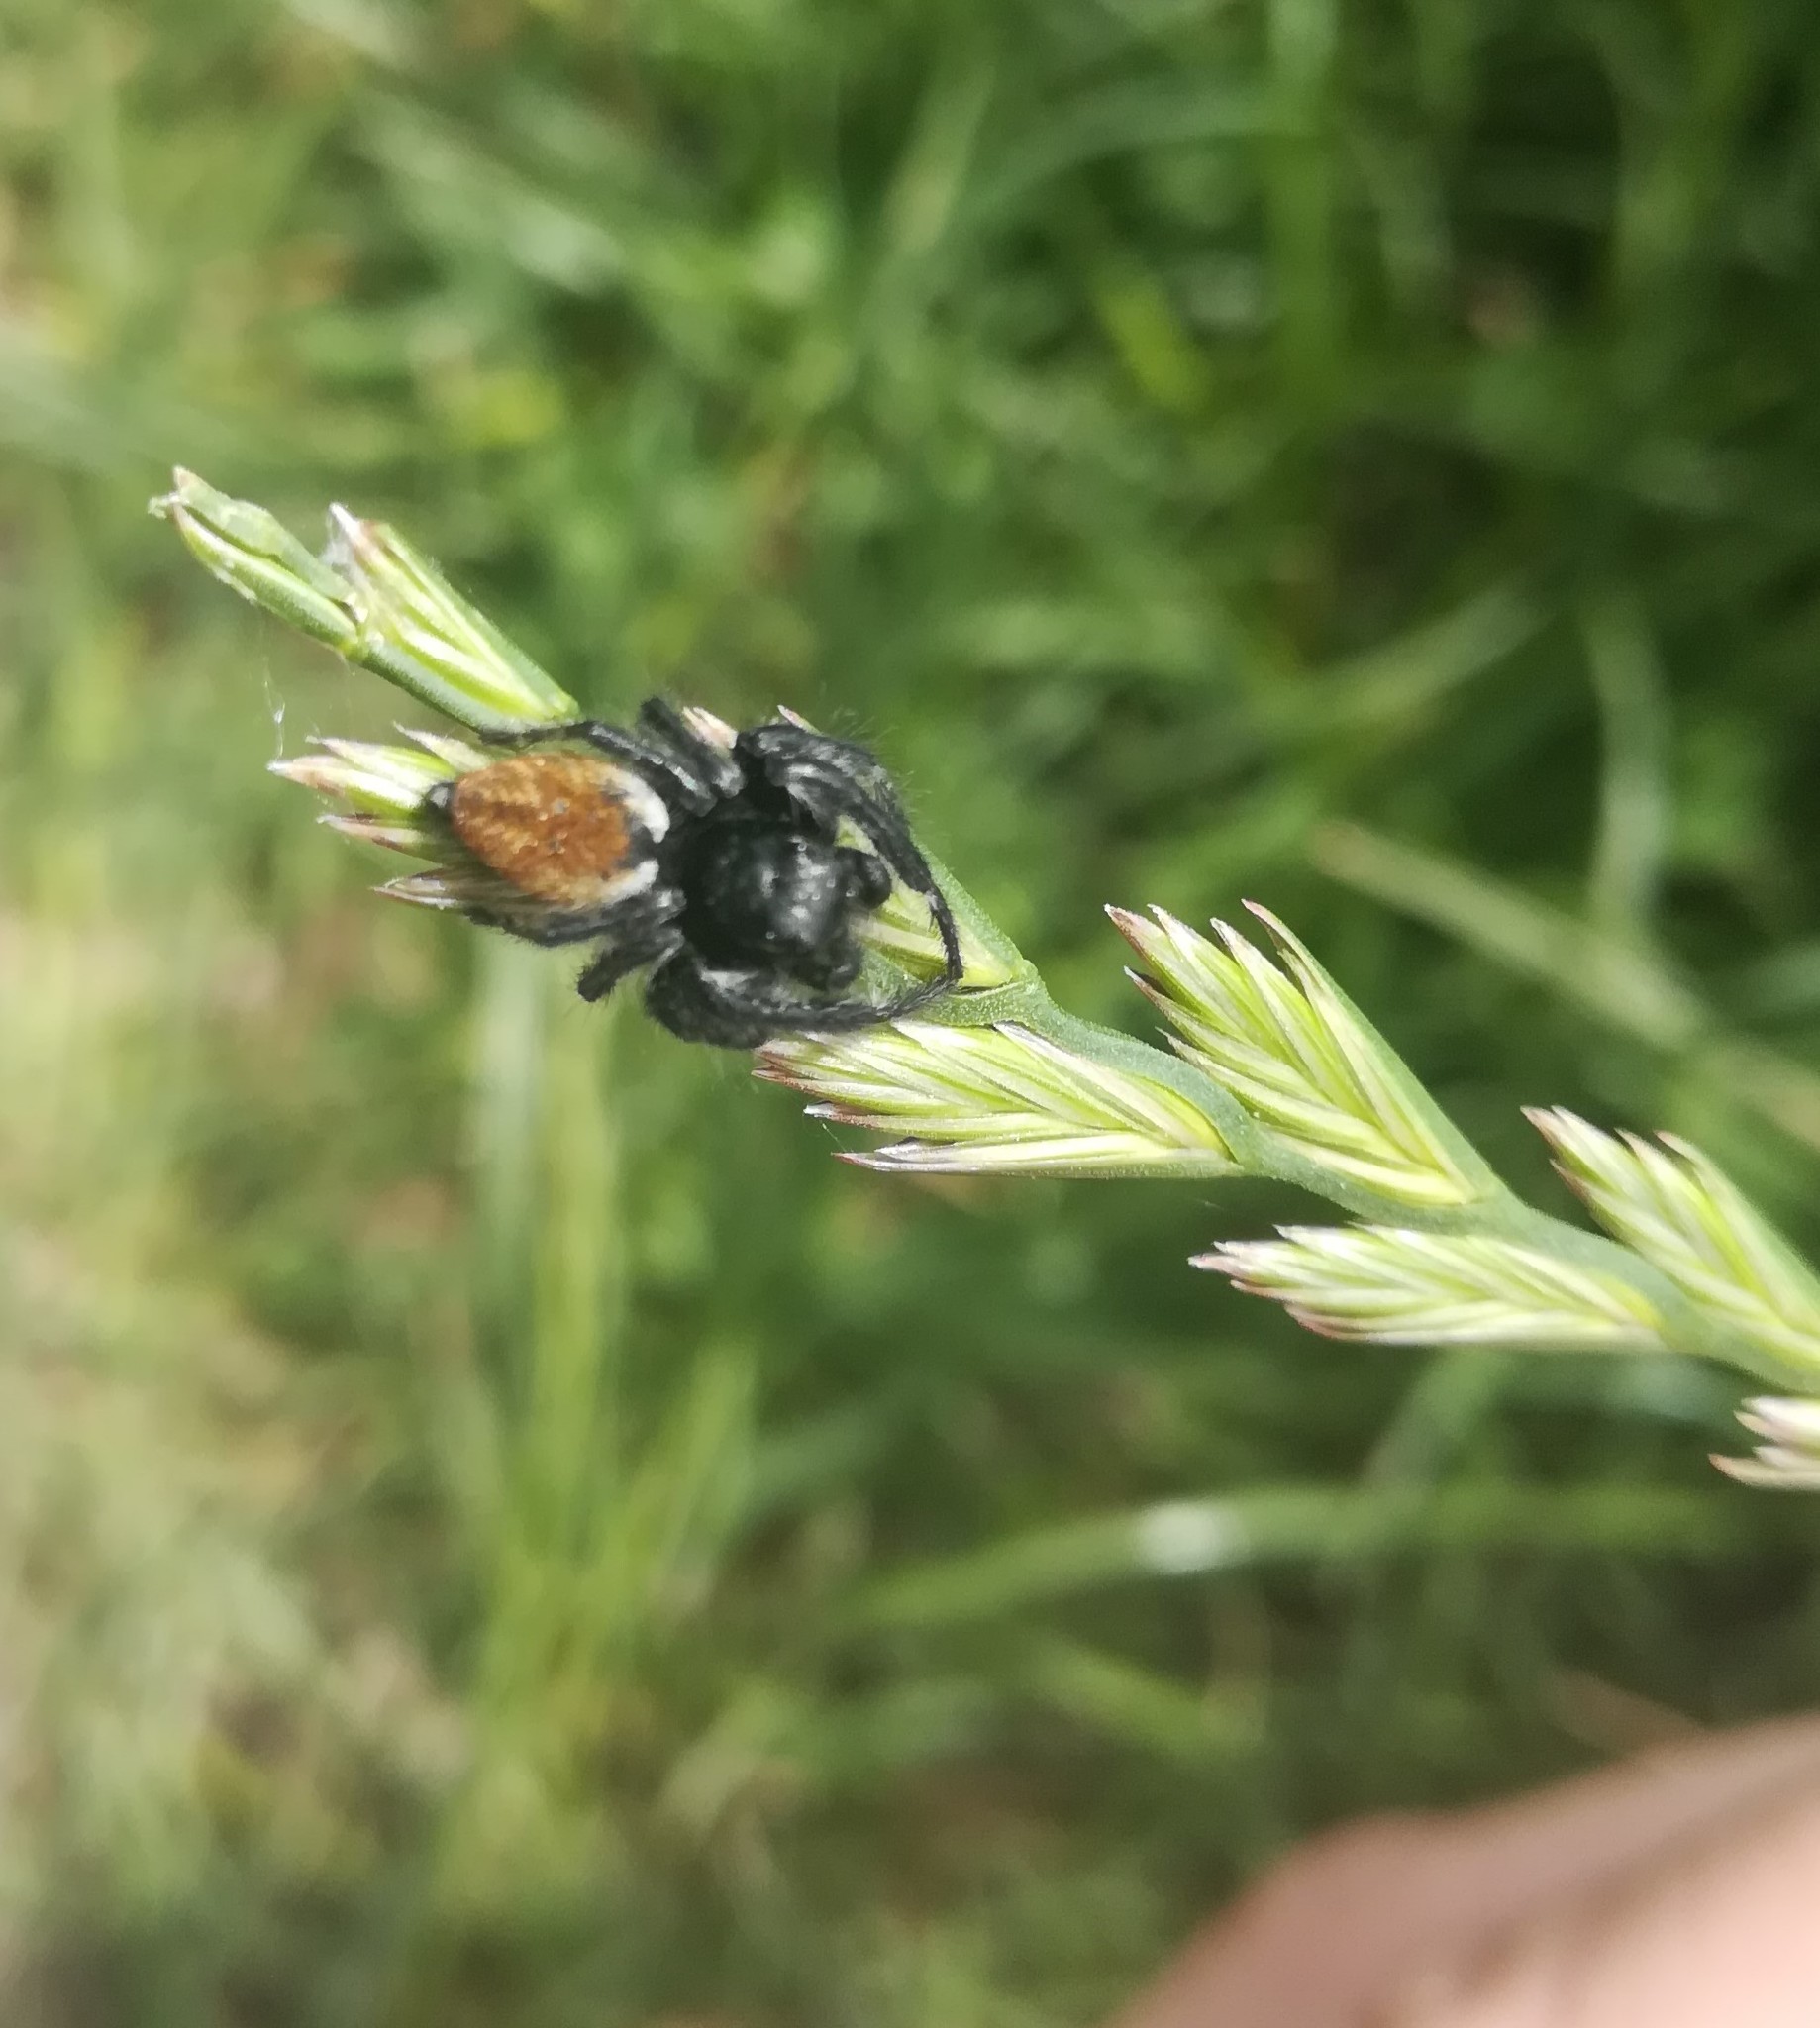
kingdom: Animalia
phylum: Arthropoda
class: Arachnida
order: Araneae
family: Salticidae
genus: Carrhotus
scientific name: Carrhotus xanthogramma
